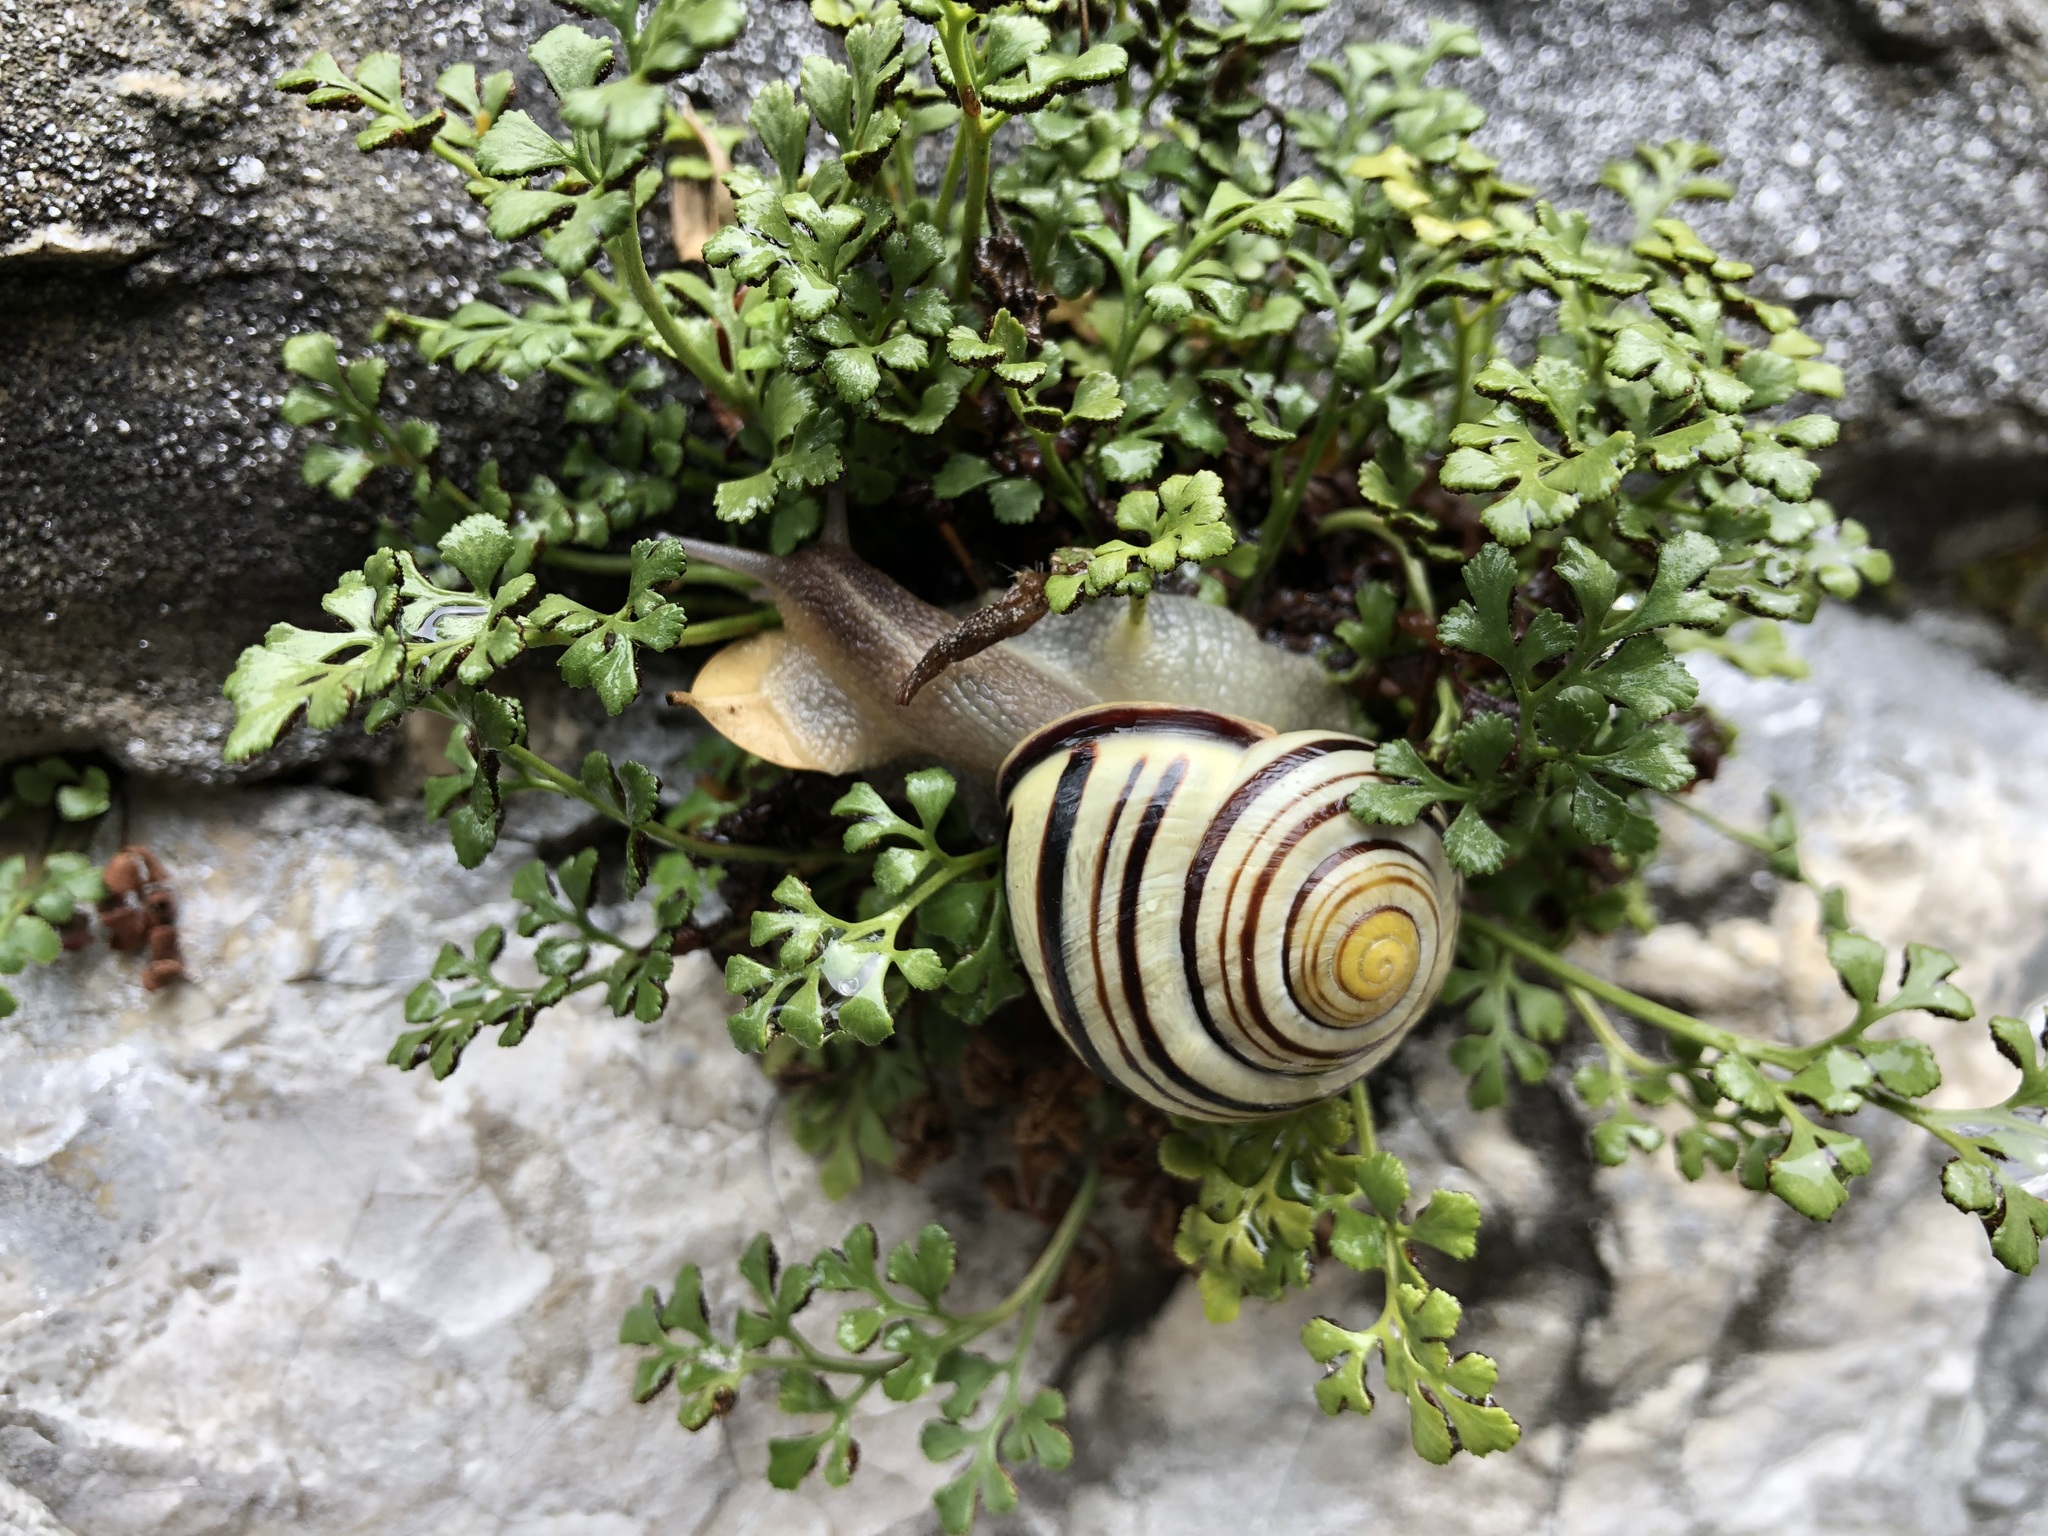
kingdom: Animalia
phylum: Mollusca
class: Gastropoda
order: Stylommatophora
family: Helicidae
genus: Cepaea
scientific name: Cepaea nemoralis
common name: Grovesnail
